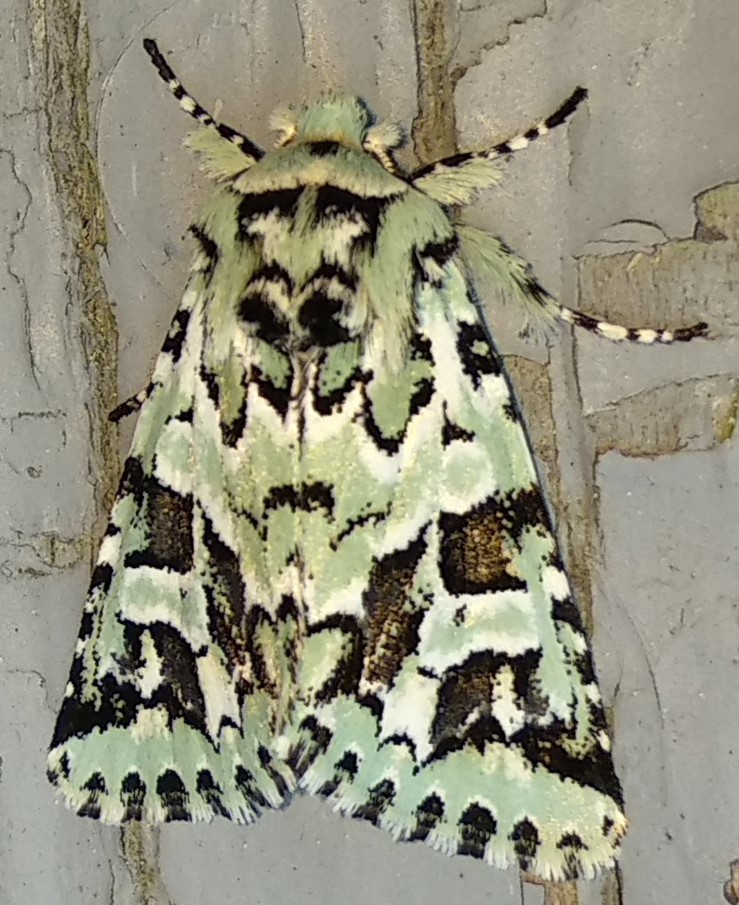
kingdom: Animalia
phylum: Arthropoda
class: Insecta
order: Lepidoptera
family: Noctuidae
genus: Feralia
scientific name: Feralia comstocki
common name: Comstock's sallow
